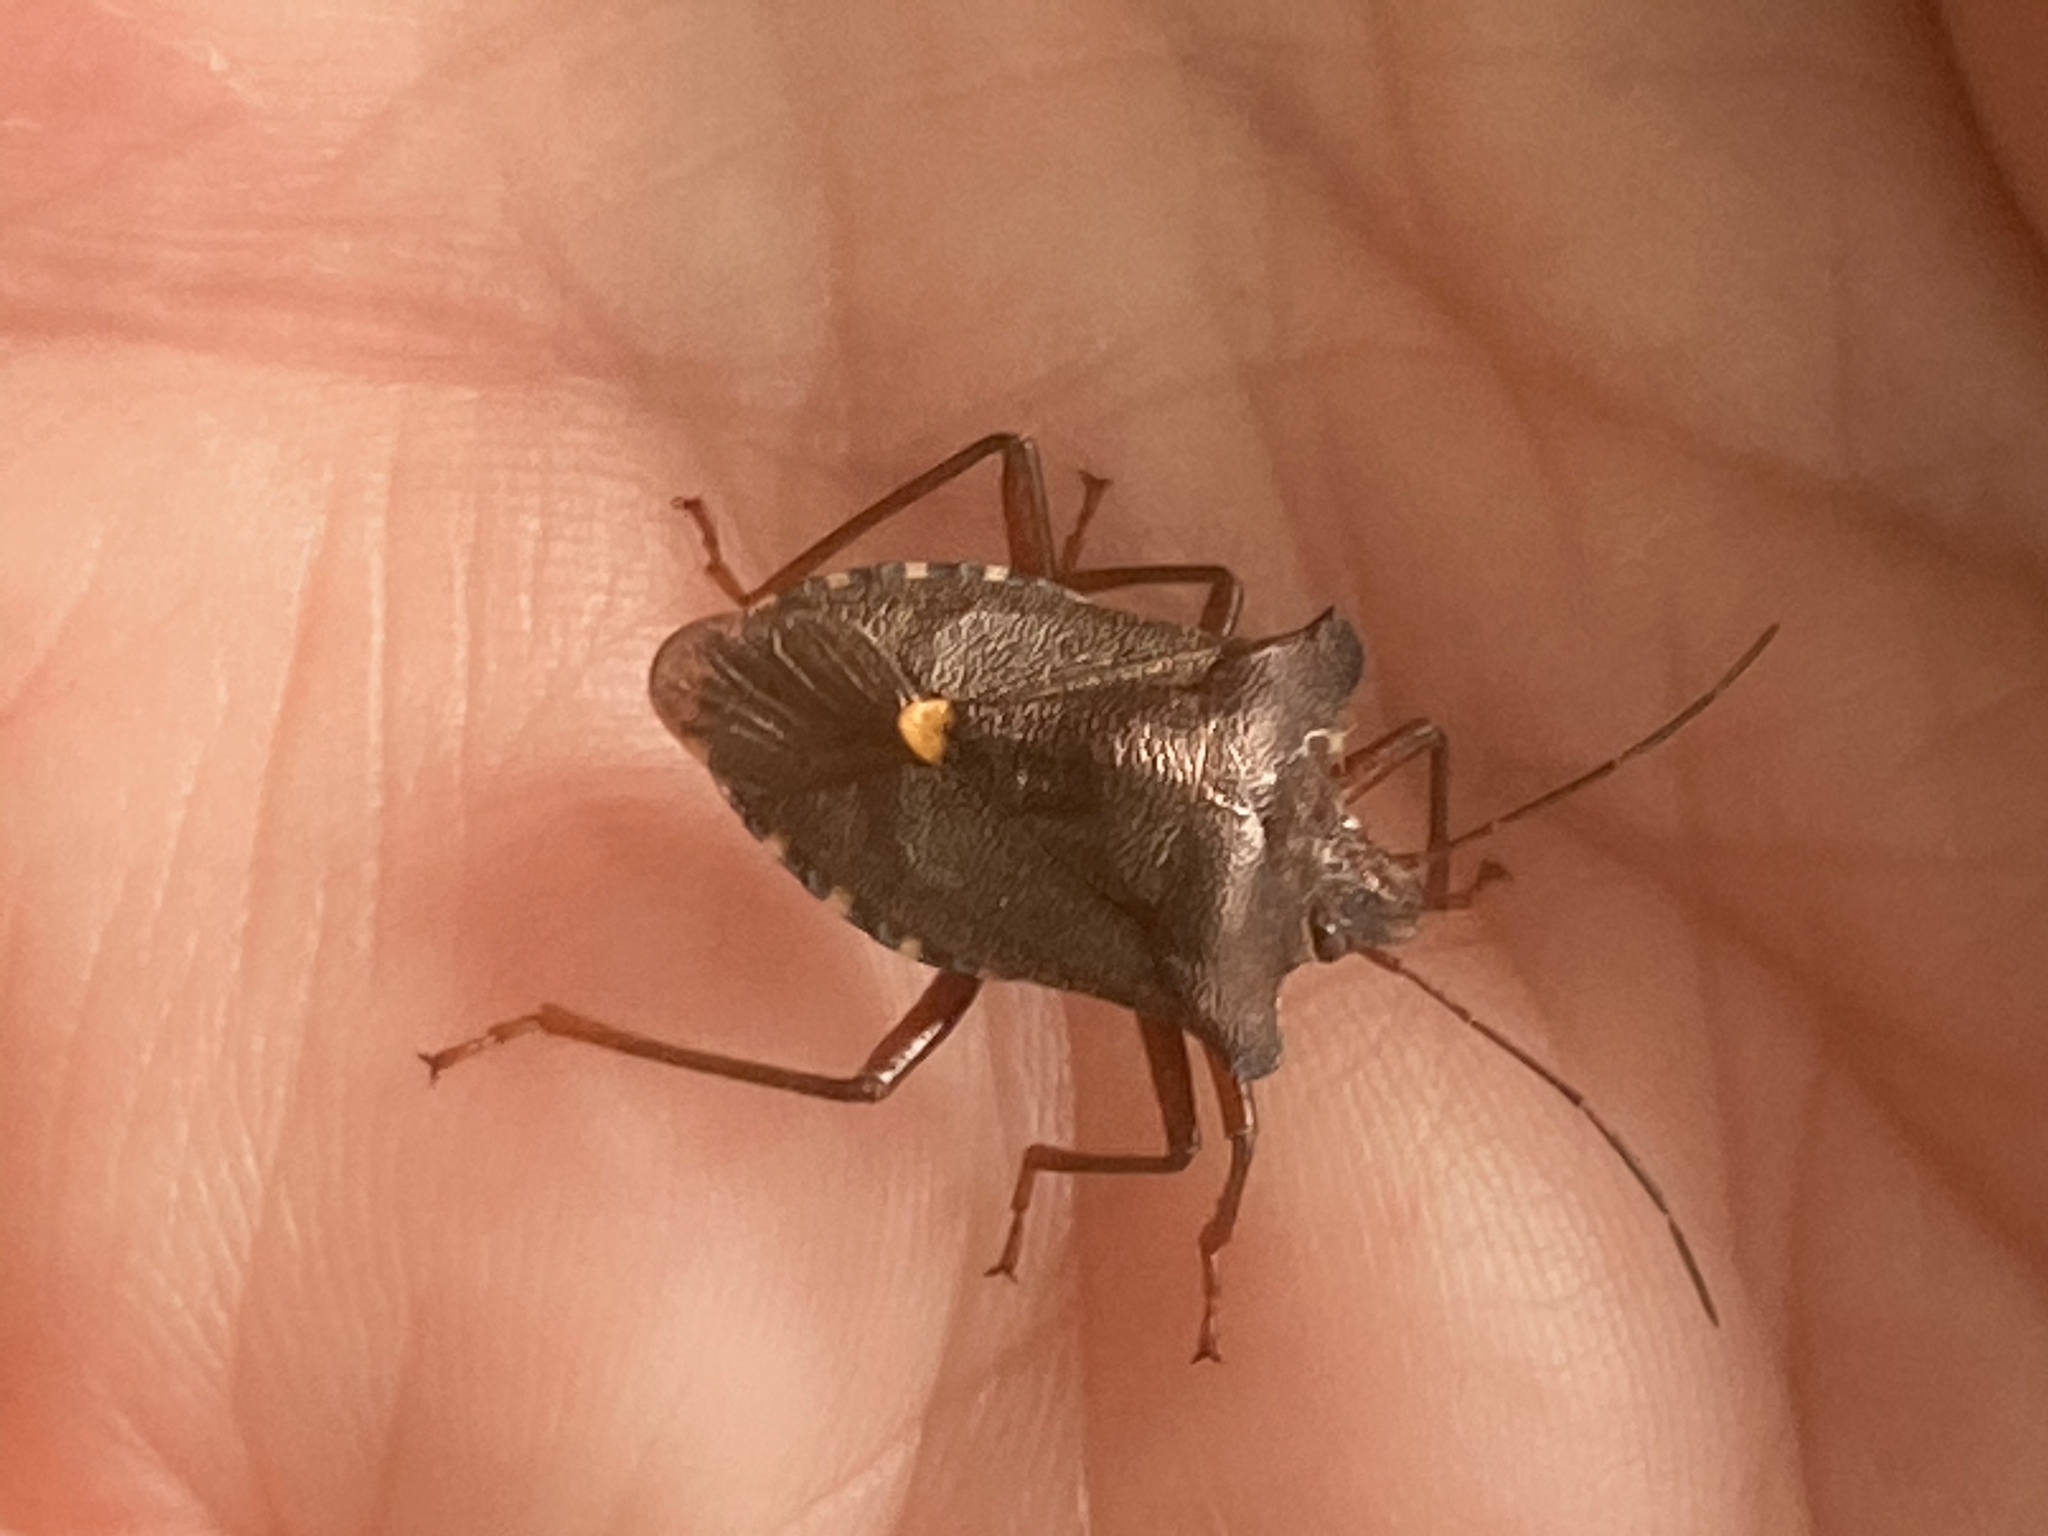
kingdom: Animalia
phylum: Arthropoda
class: Insecta
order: Hemiptera
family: Pentatomidae
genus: Pentatoma
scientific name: Pentatoma rufipes
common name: Forest bug
